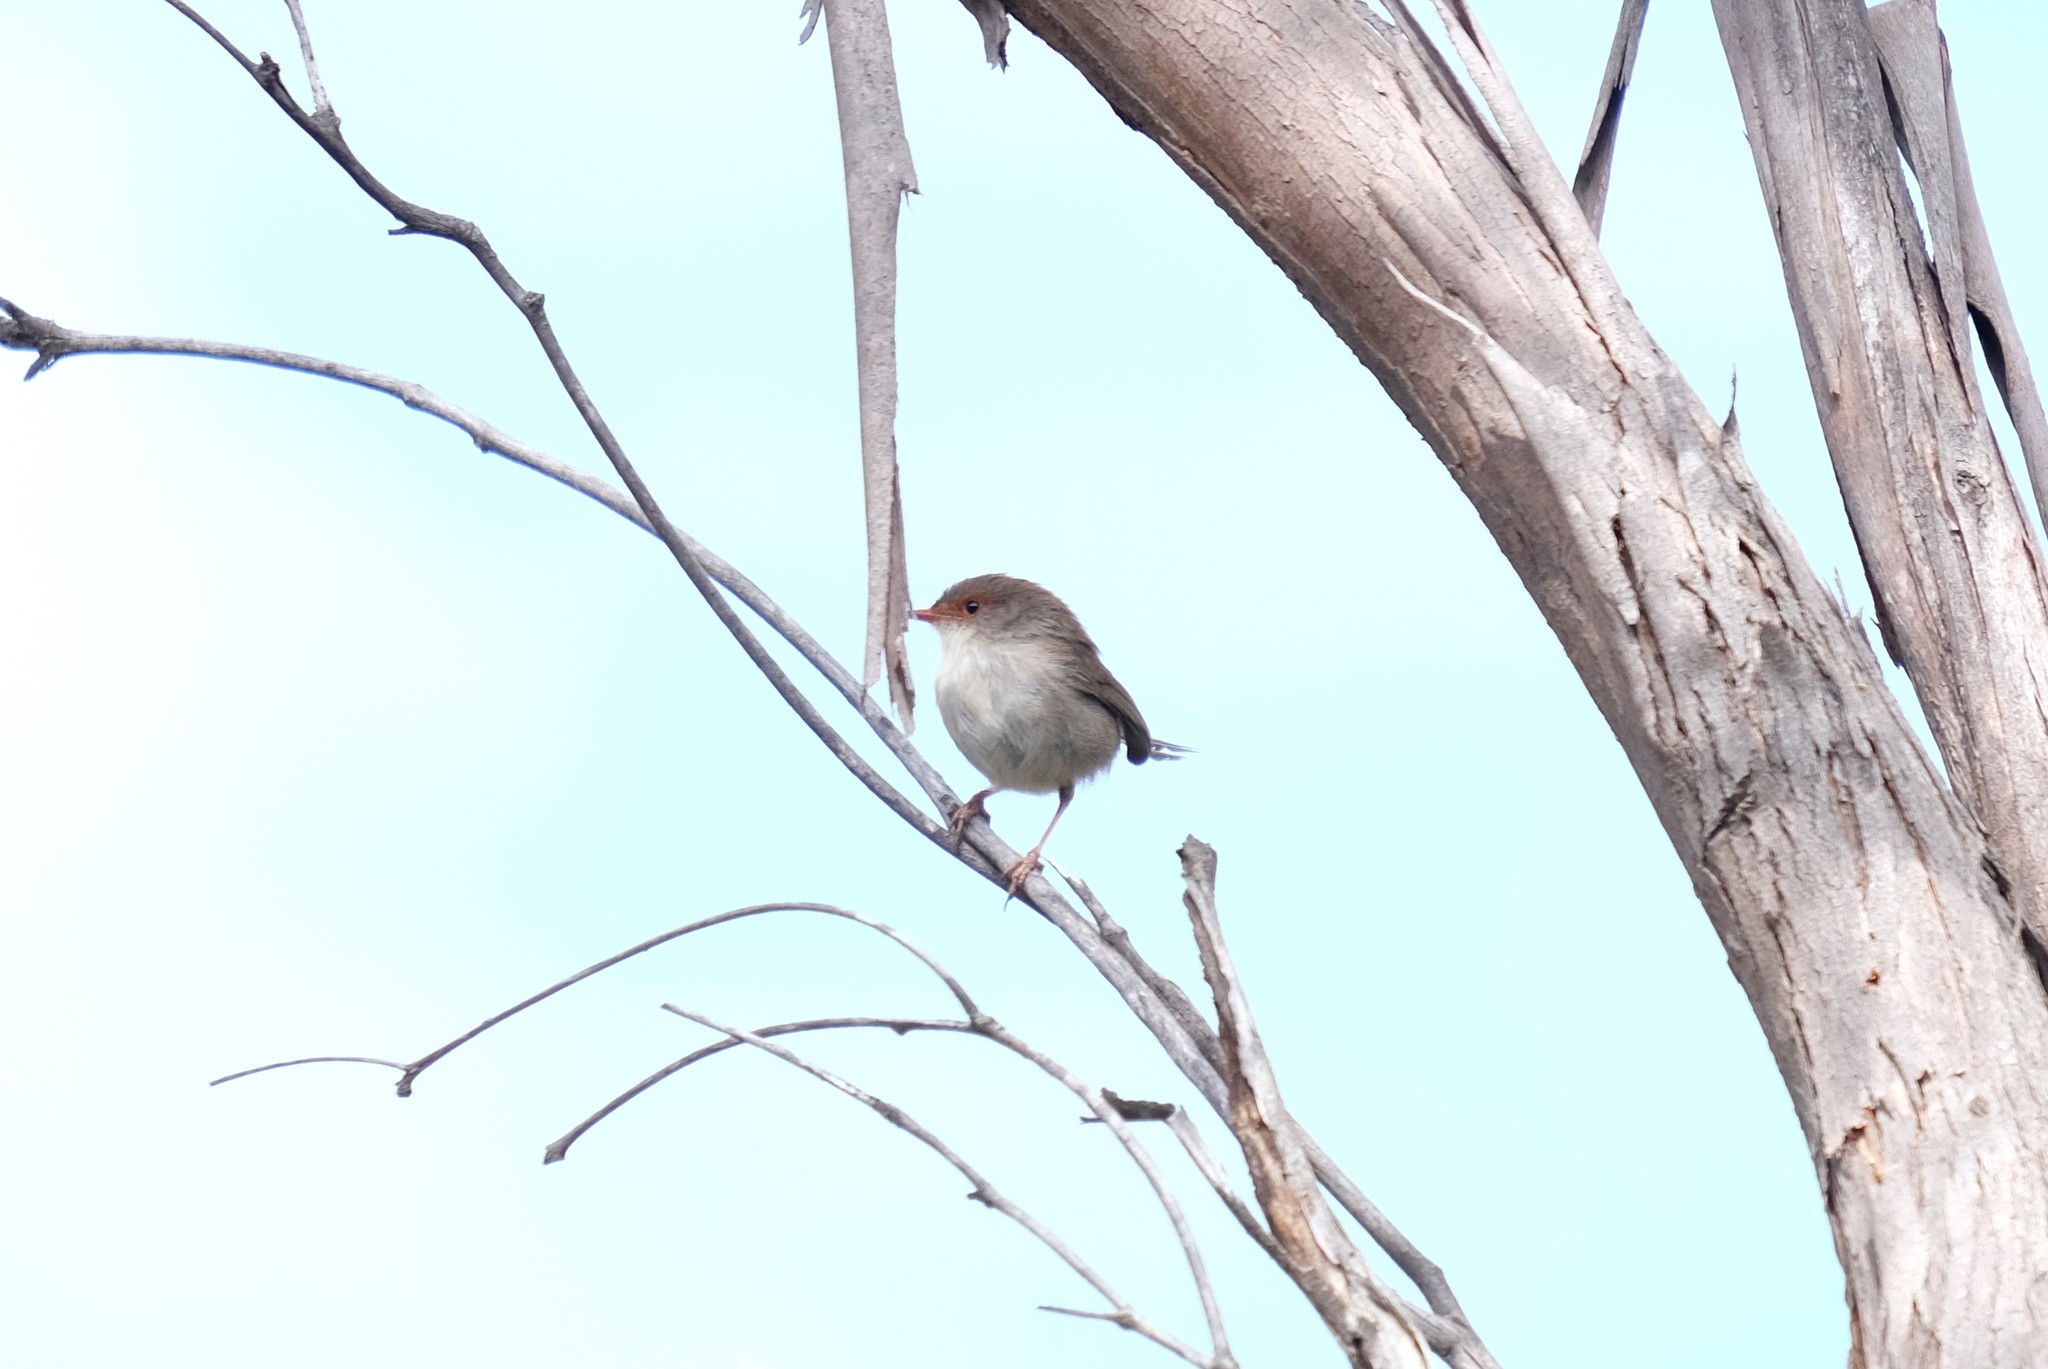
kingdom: Animalia
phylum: Chordata
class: Aves
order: Passeriformes
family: Maluridae
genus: Malurus
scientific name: Malurus cyaneus
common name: Superb fairywren
